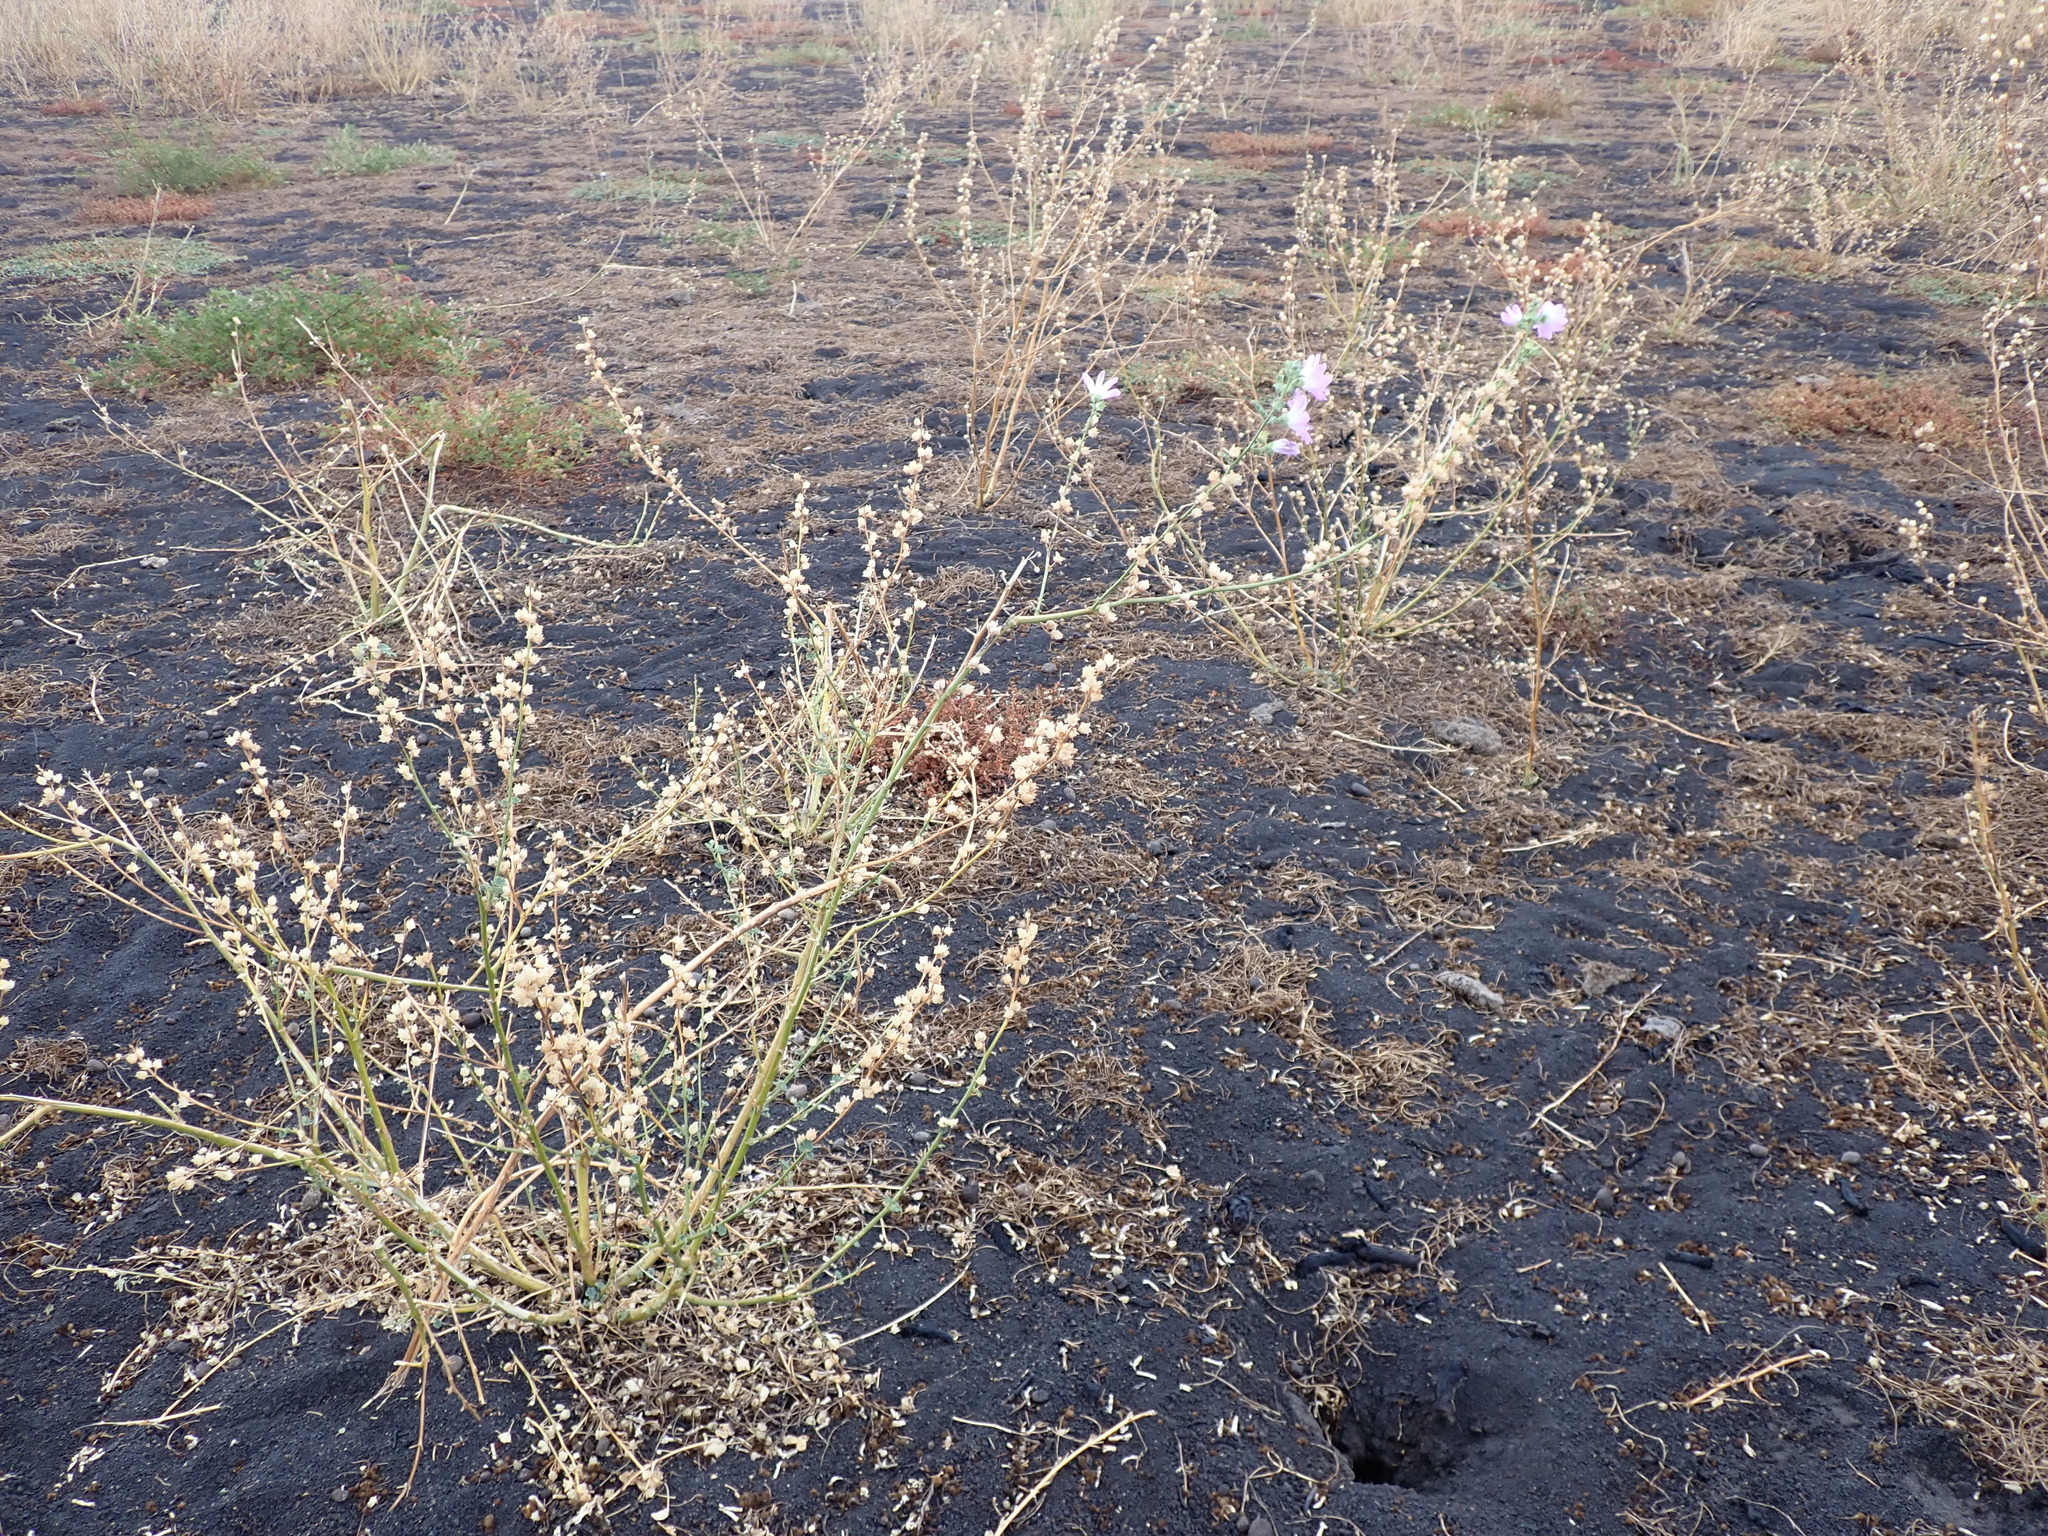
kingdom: Plantae
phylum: Tracheophyta
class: Magnoliopsida
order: Malvales
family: Malvaceae
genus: Malva
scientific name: Malva weinmanniana
